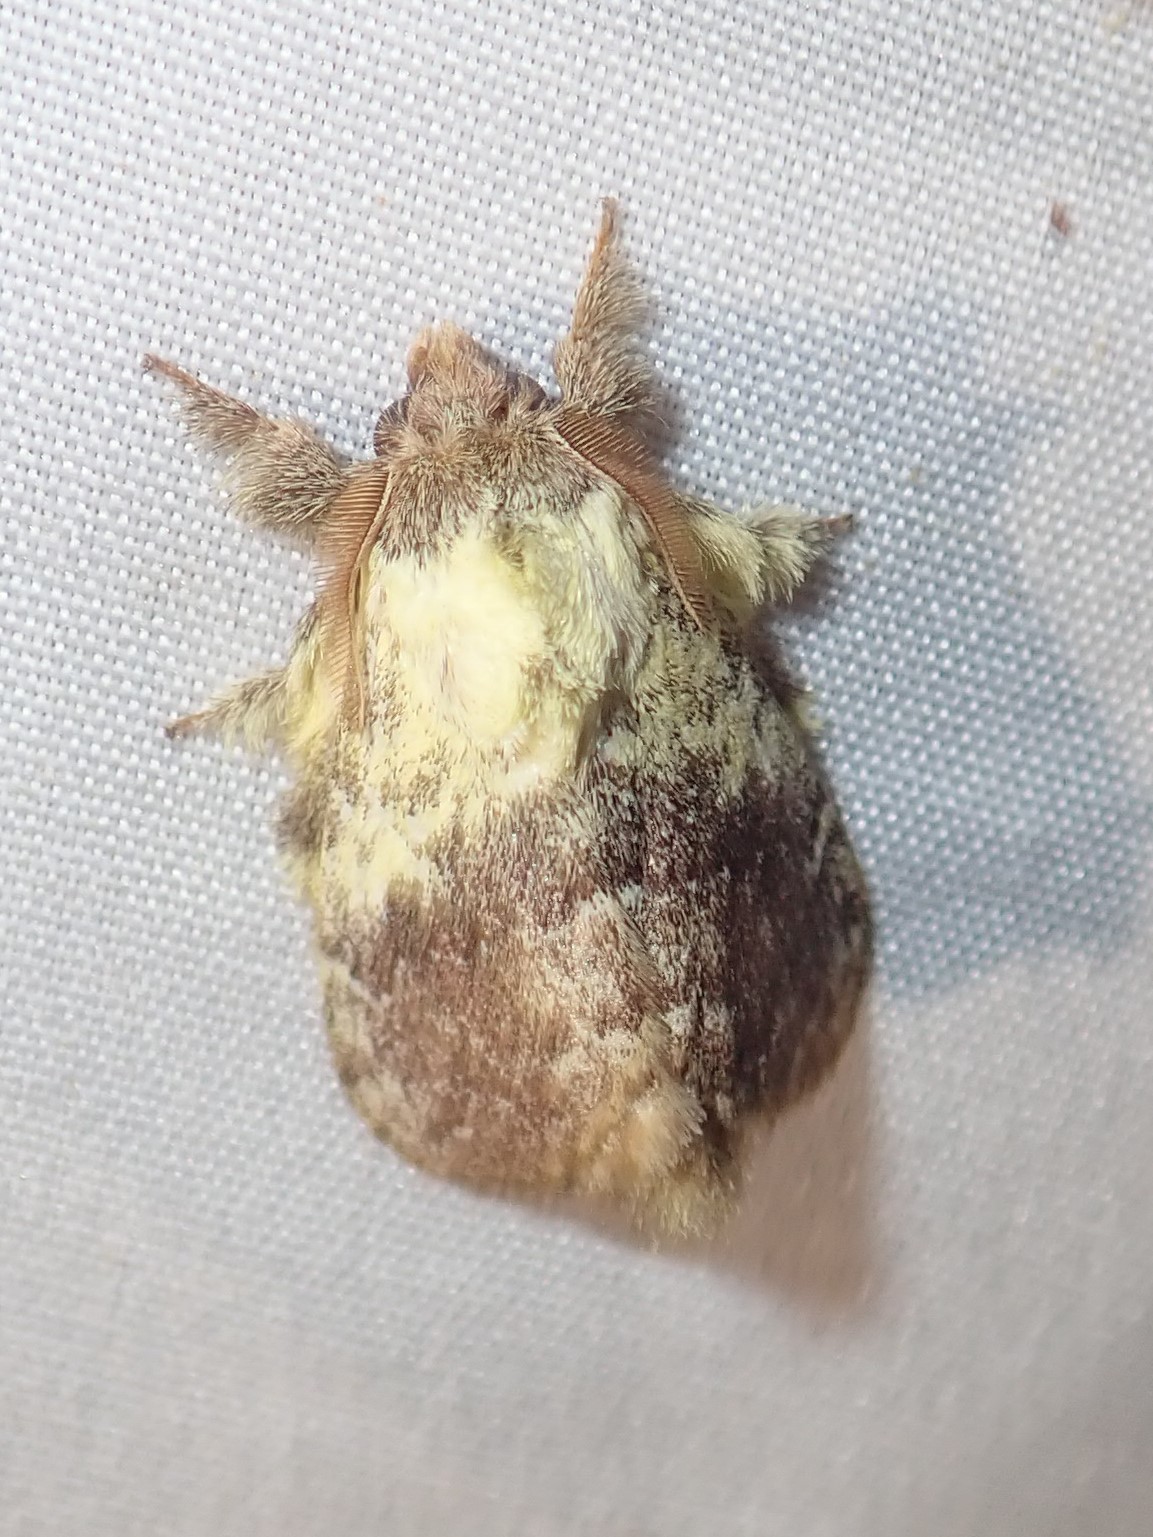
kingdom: Animalia
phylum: Arthropoda
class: Insecta
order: Lepidoptera
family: Lasiocampidae
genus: Euglyphis
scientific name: Euglyphis primola
